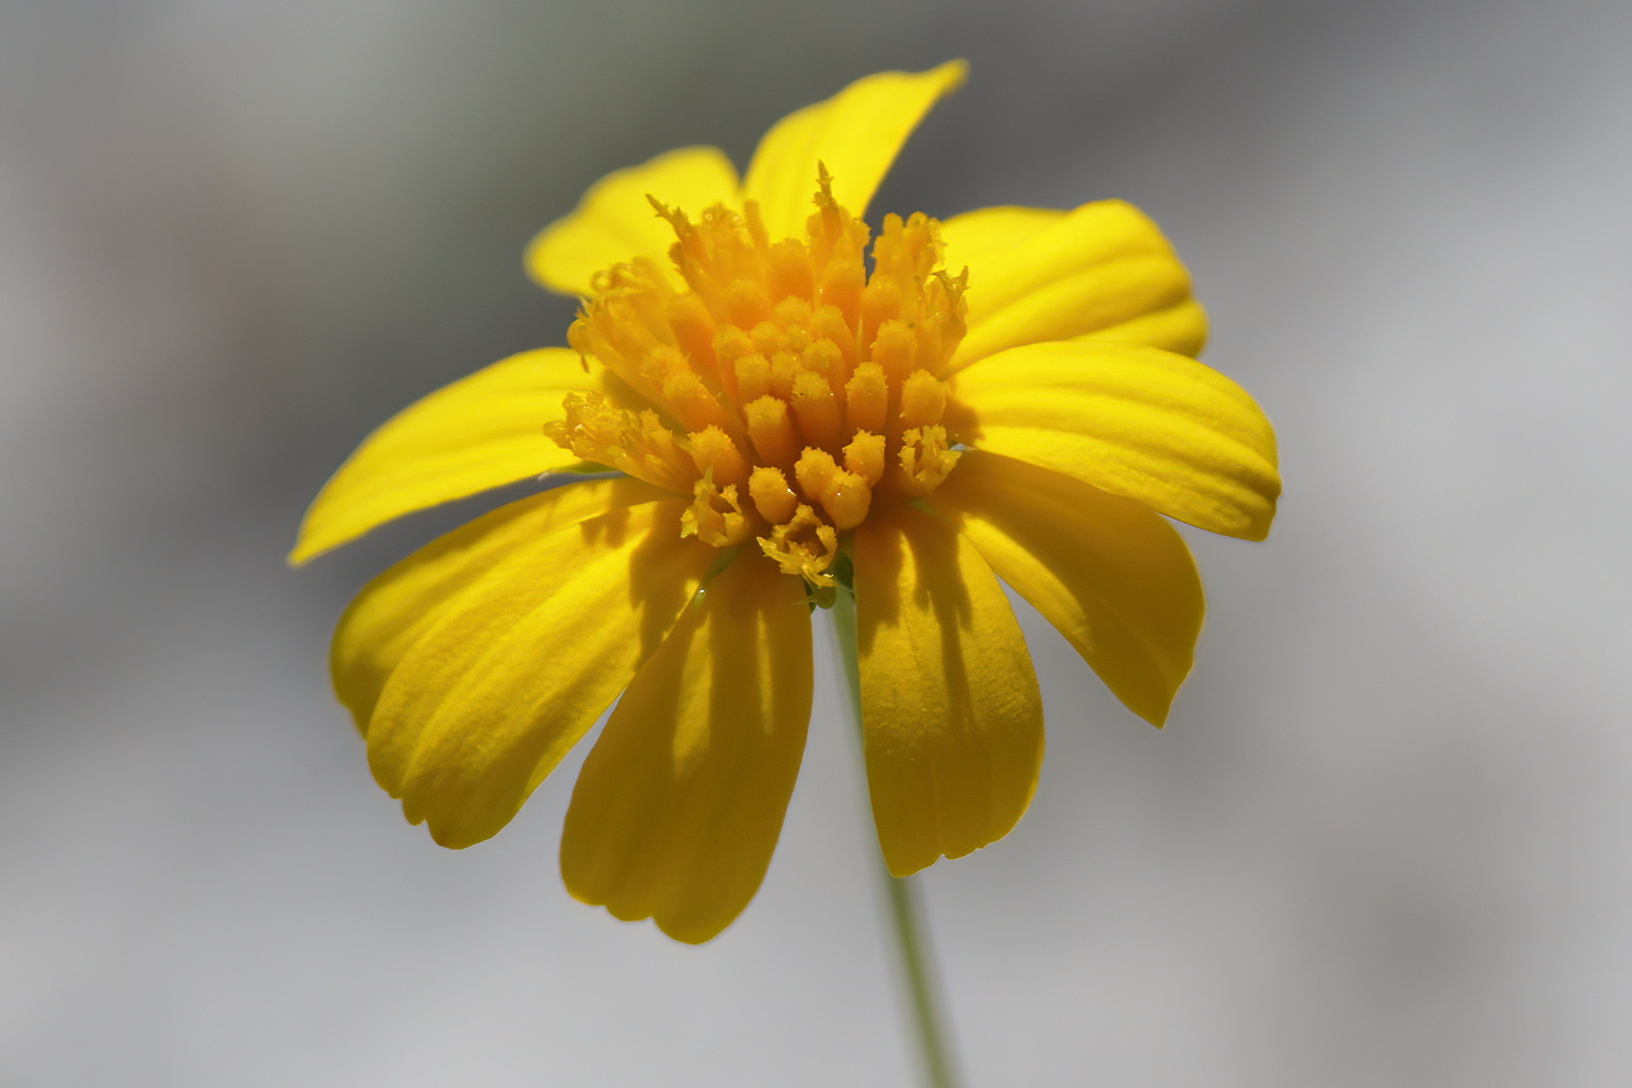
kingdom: Plantae
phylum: Tracheophyta
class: Magnoliopsida
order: Asterales
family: Asteraceae
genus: Balduina
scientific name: Balduina angustifolia
